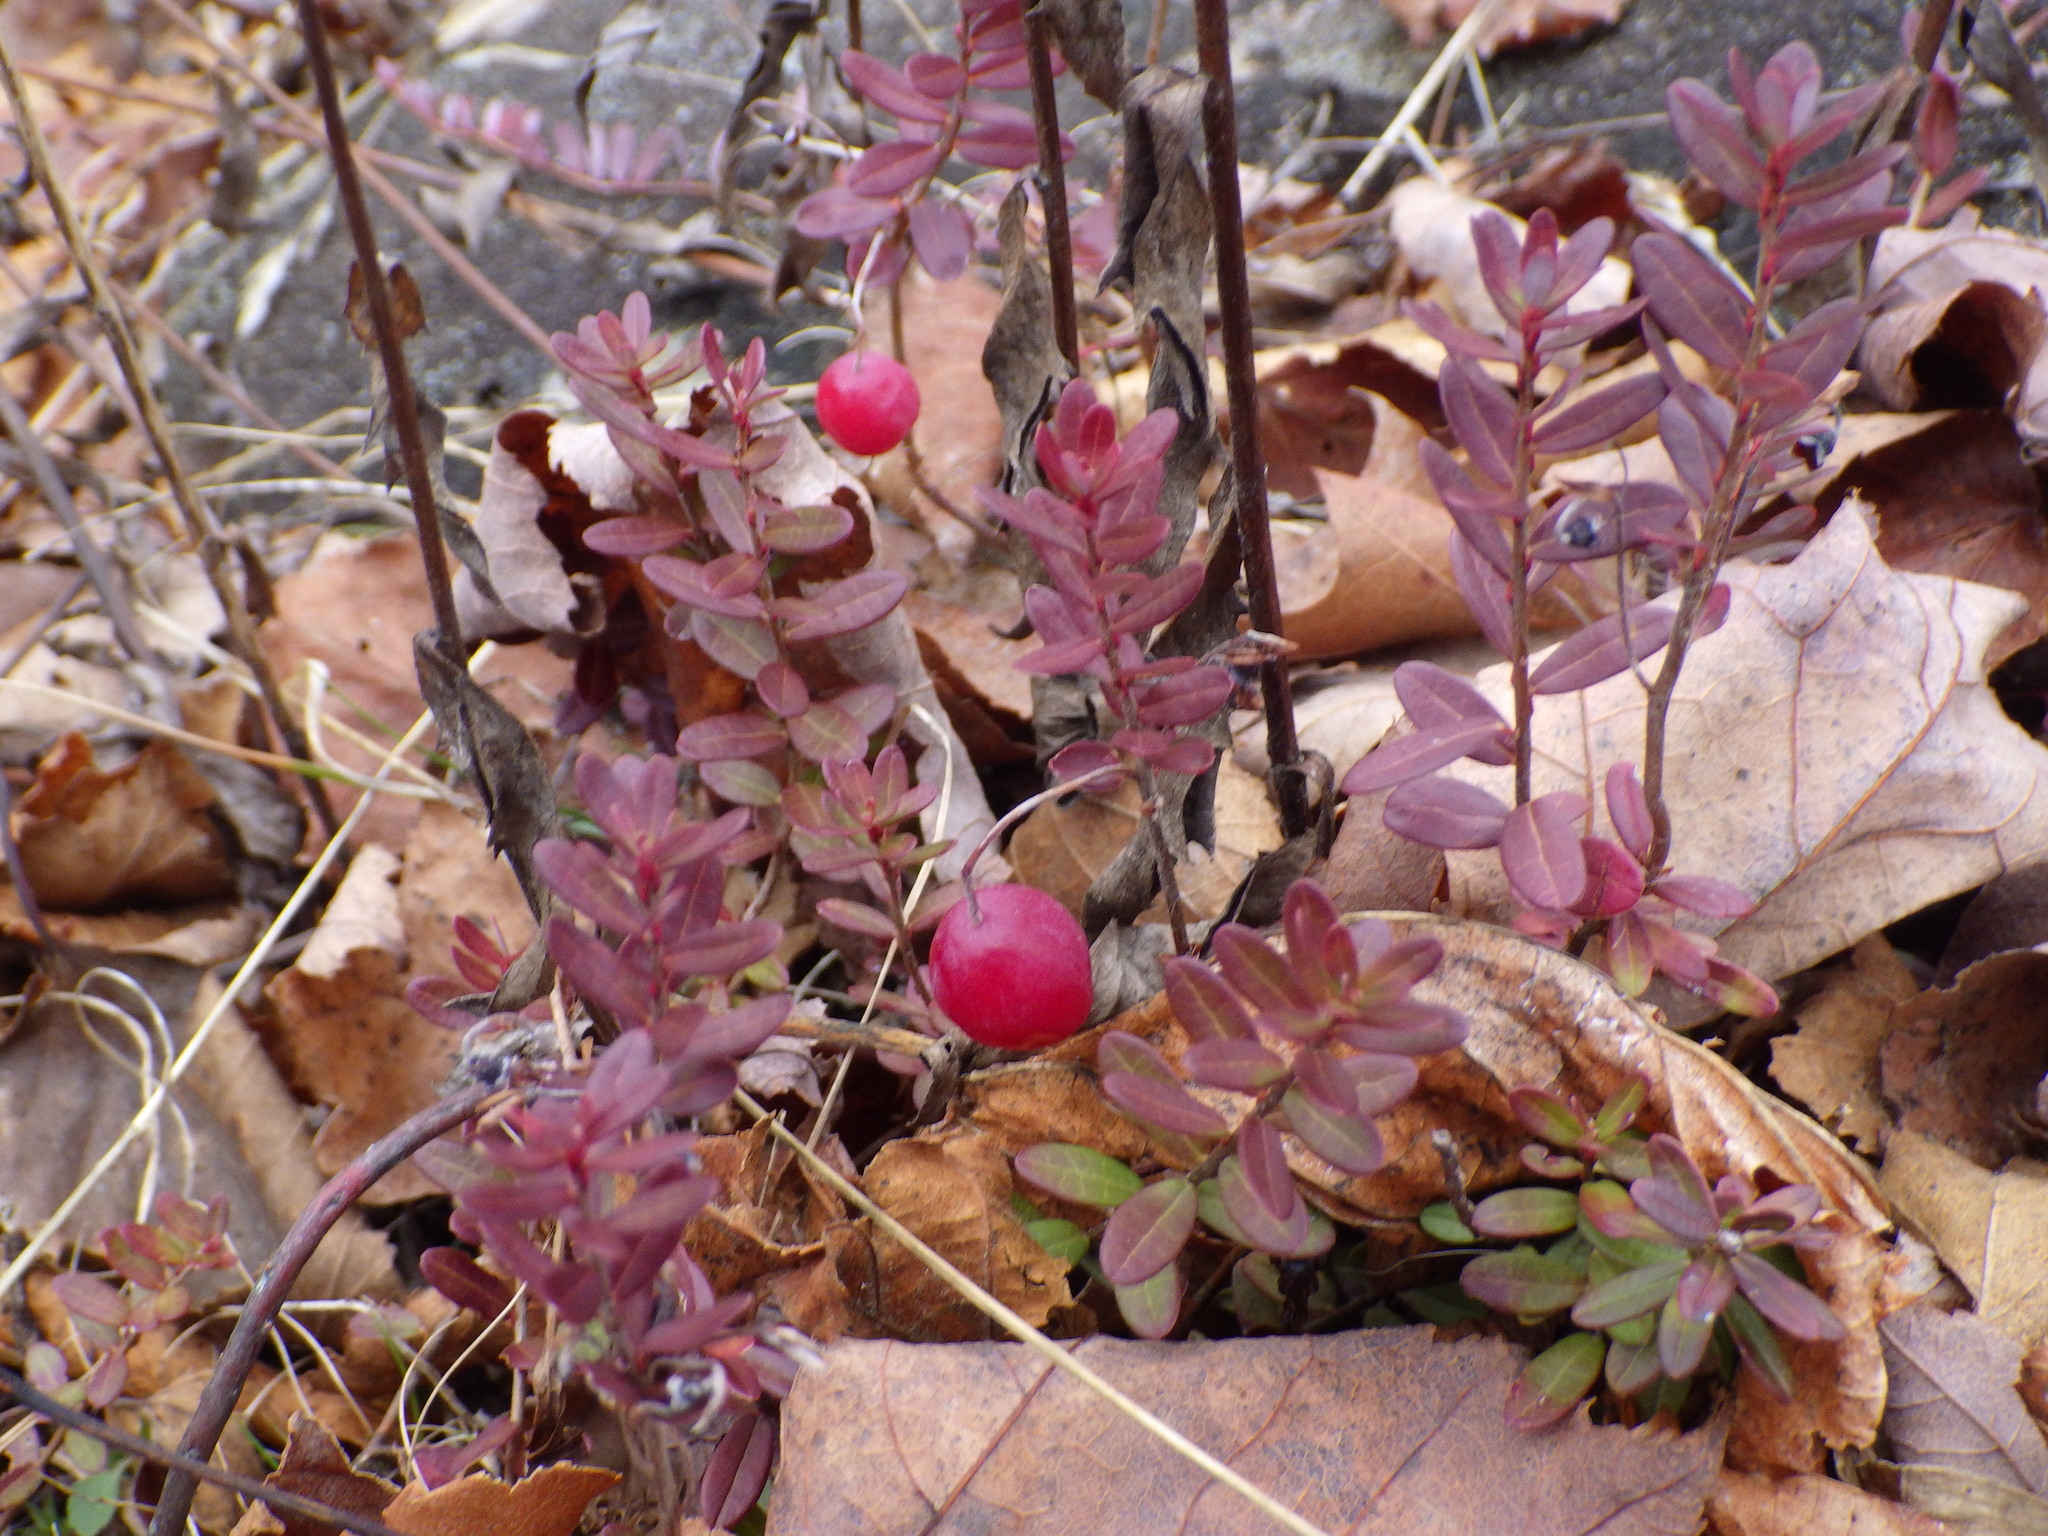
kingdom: Plantae
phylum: Tracheophyta
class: Magnoliopsida
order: Ericales
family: Ericaceae
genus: Vaccinium
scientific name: Vaccinium macrocarpon
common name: American cranberry
